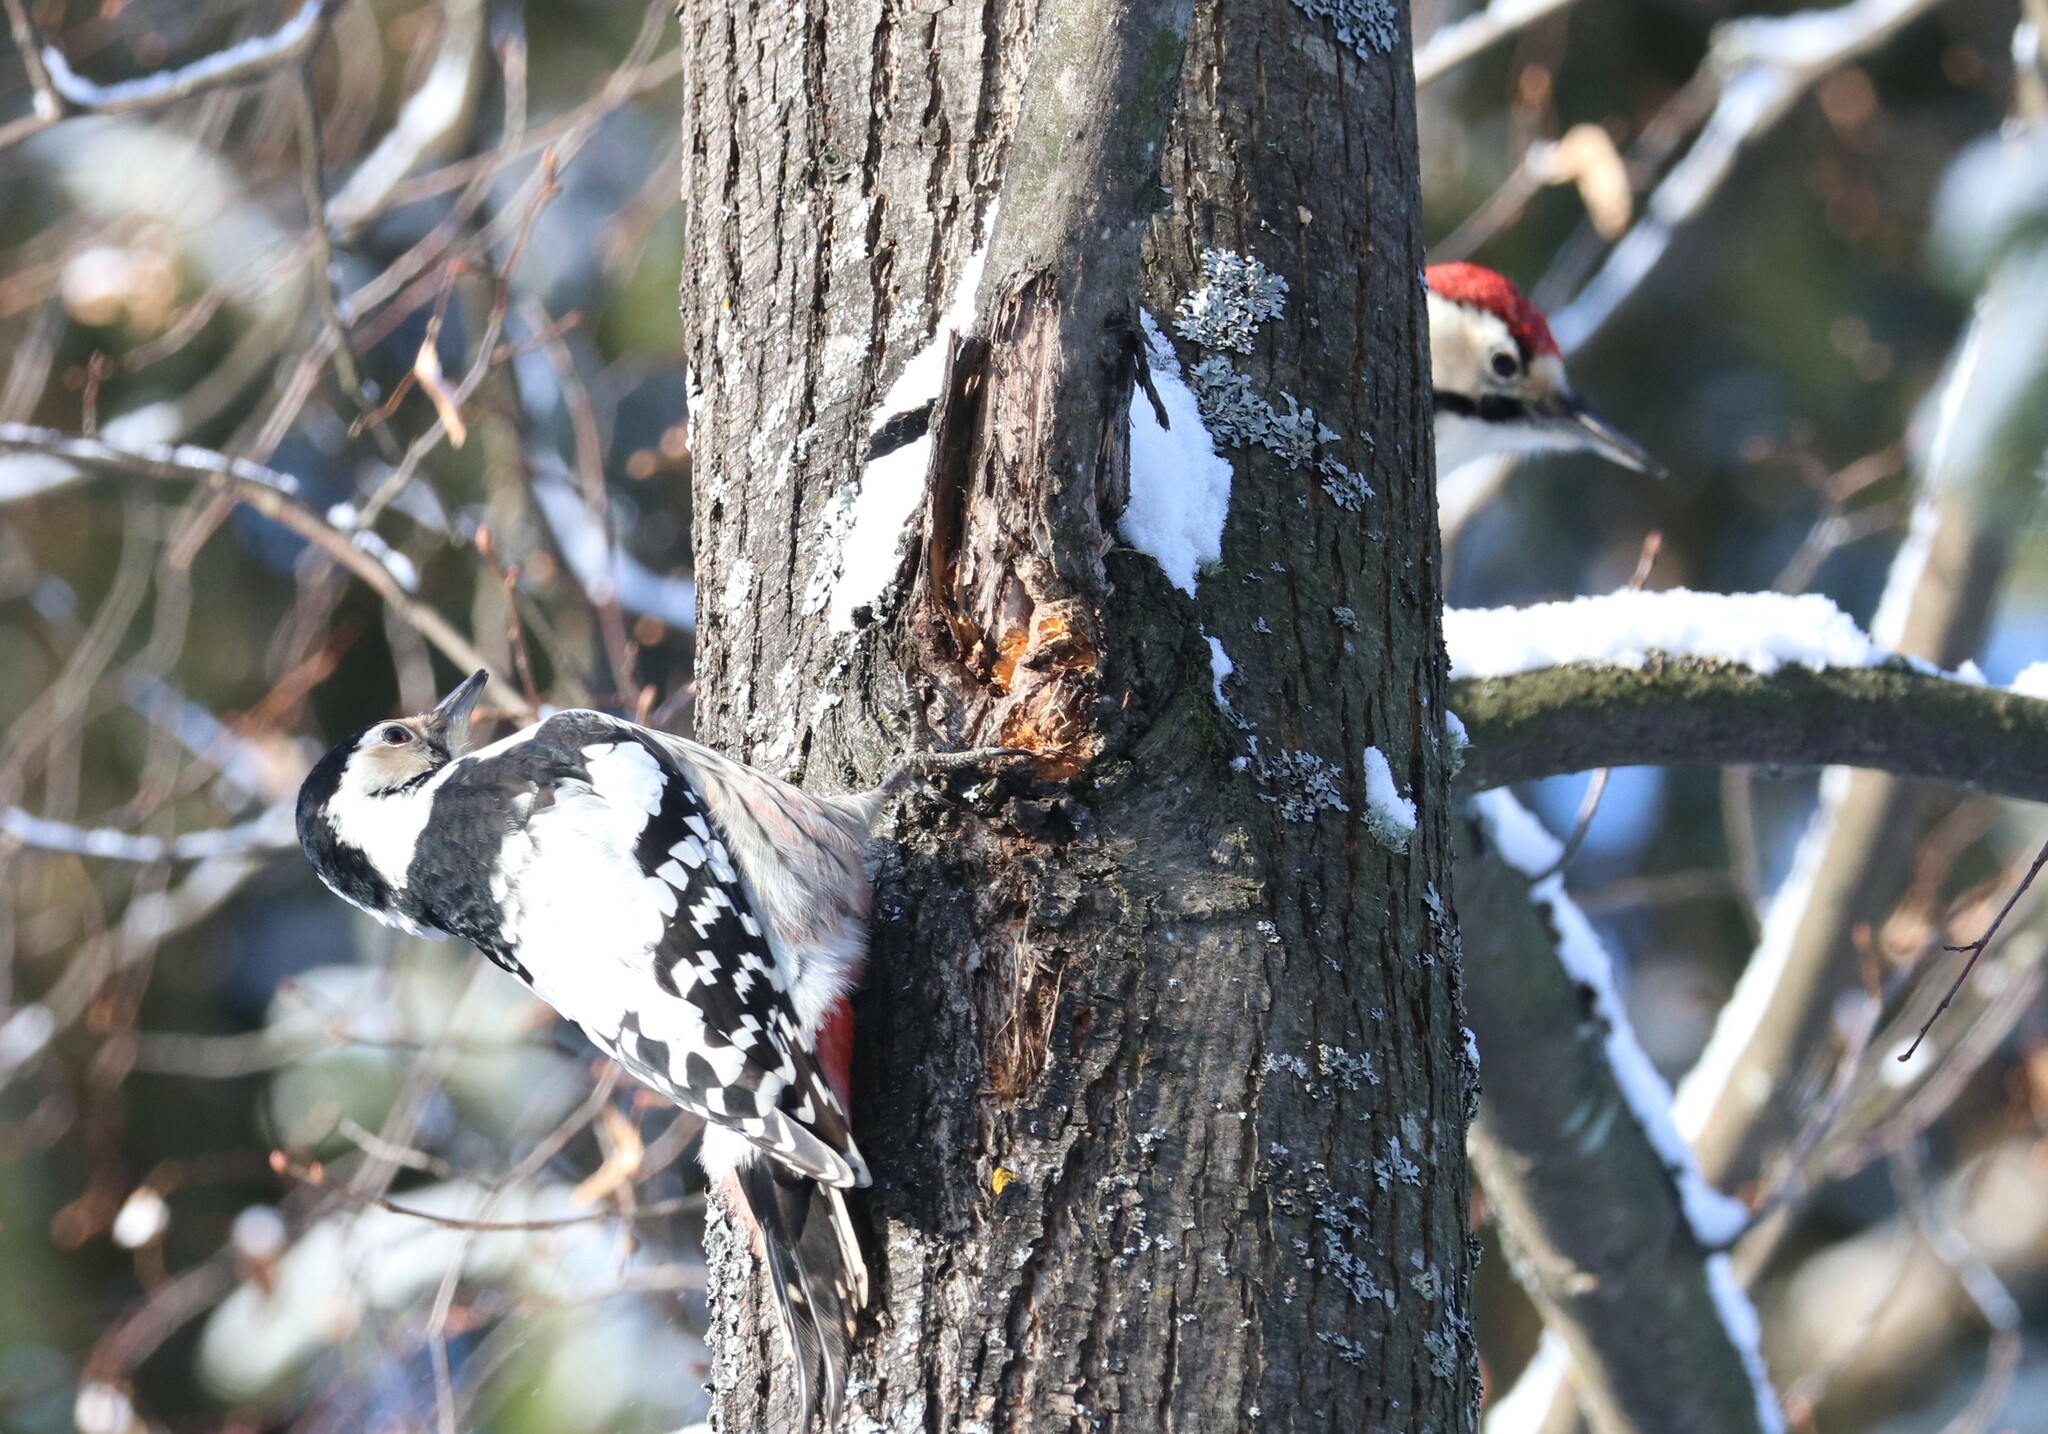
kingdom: Animalia
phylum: Chordata
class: Aves
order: Piciformes
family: Picidae
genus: Dendrocopos
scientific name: Dendrocopos leucotos
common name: White-backed woodpecker
